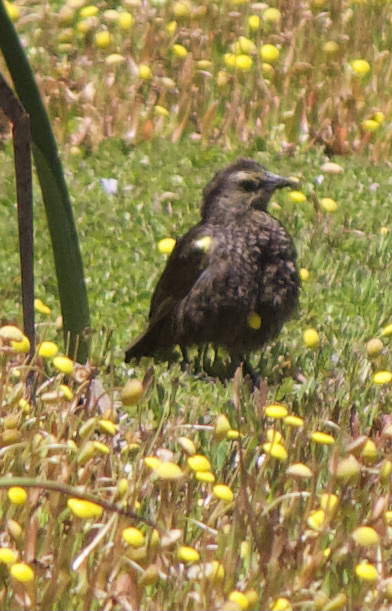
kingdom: Animalia
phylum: Chordata
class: Aves
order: Passeriformes
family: Icteridae
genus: Agelasticus
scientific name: Agelasticus thilius
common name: Yellow-winged blackbird
